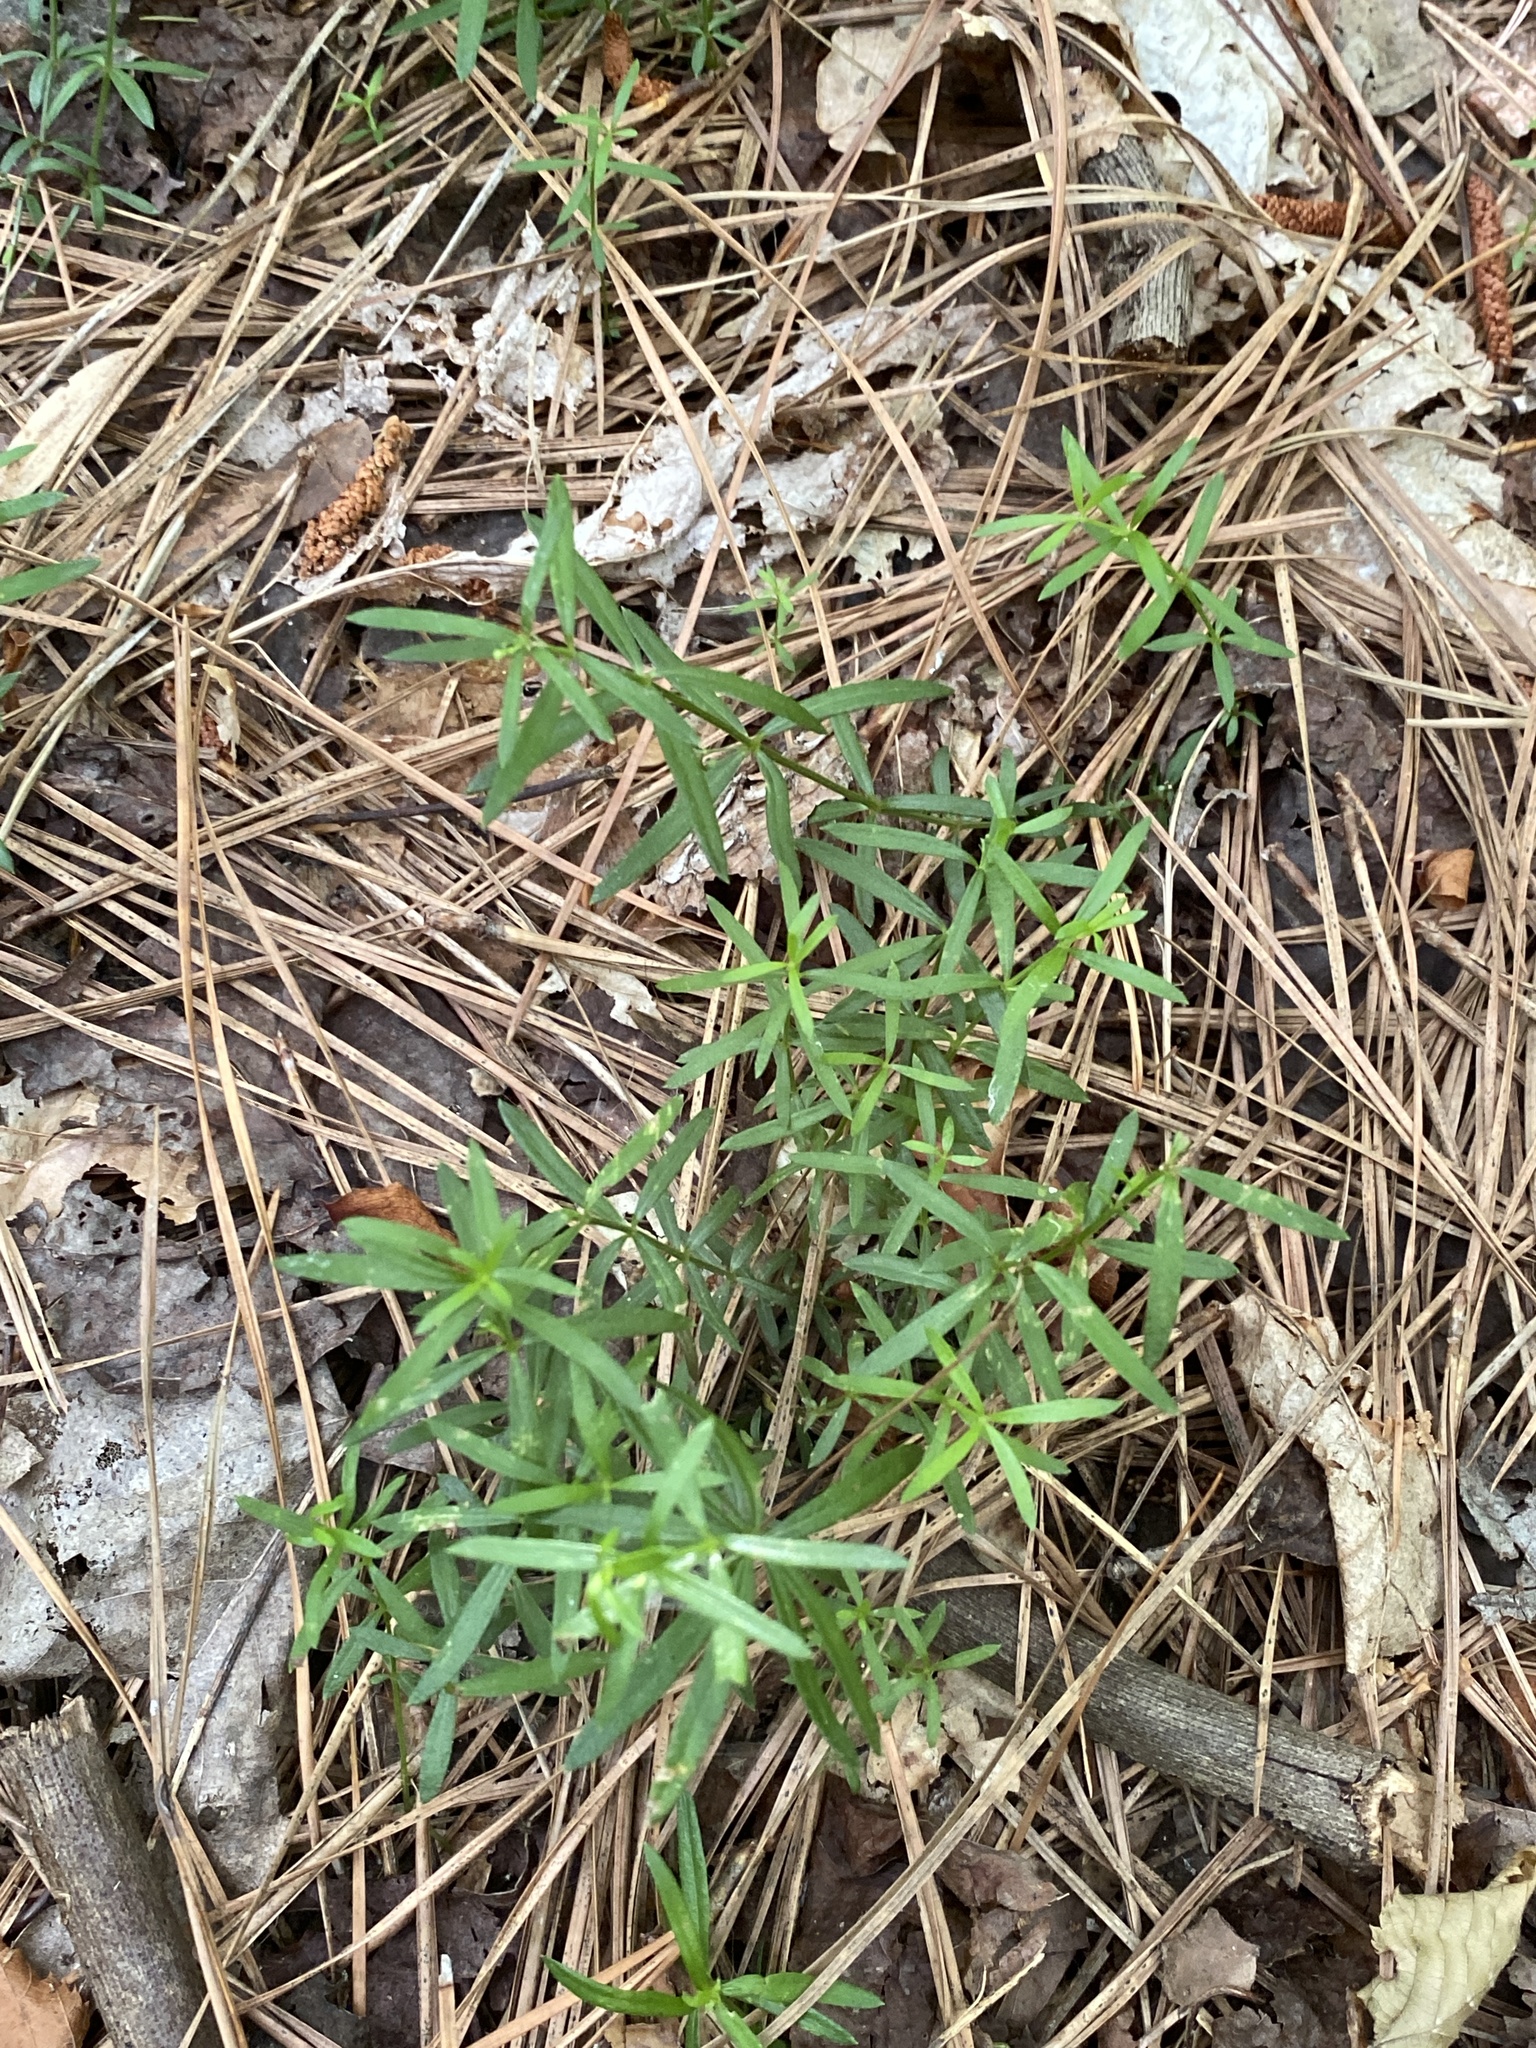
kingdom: Plantae
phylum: Tracheophyta
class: Magnoliopsida
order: Gentianales
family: Rubiaceae
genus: Galium
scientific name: Galium uniflorum
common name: One-flower bedstraw
